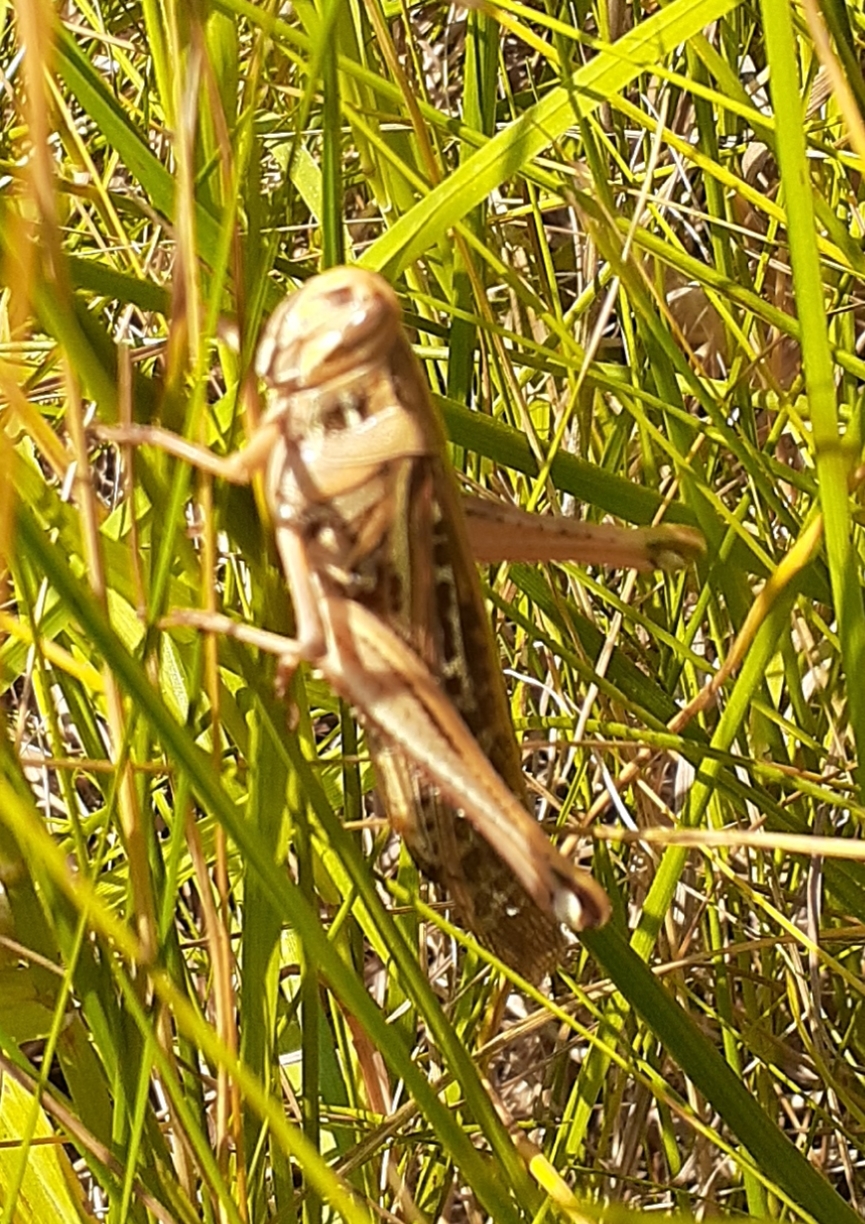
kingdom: Animalia
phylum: Arthropoda
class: Insecta
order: Orthoptera
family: Acrididae
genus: Schistocerca
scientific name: Schistocerca americana
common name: American bird locust
